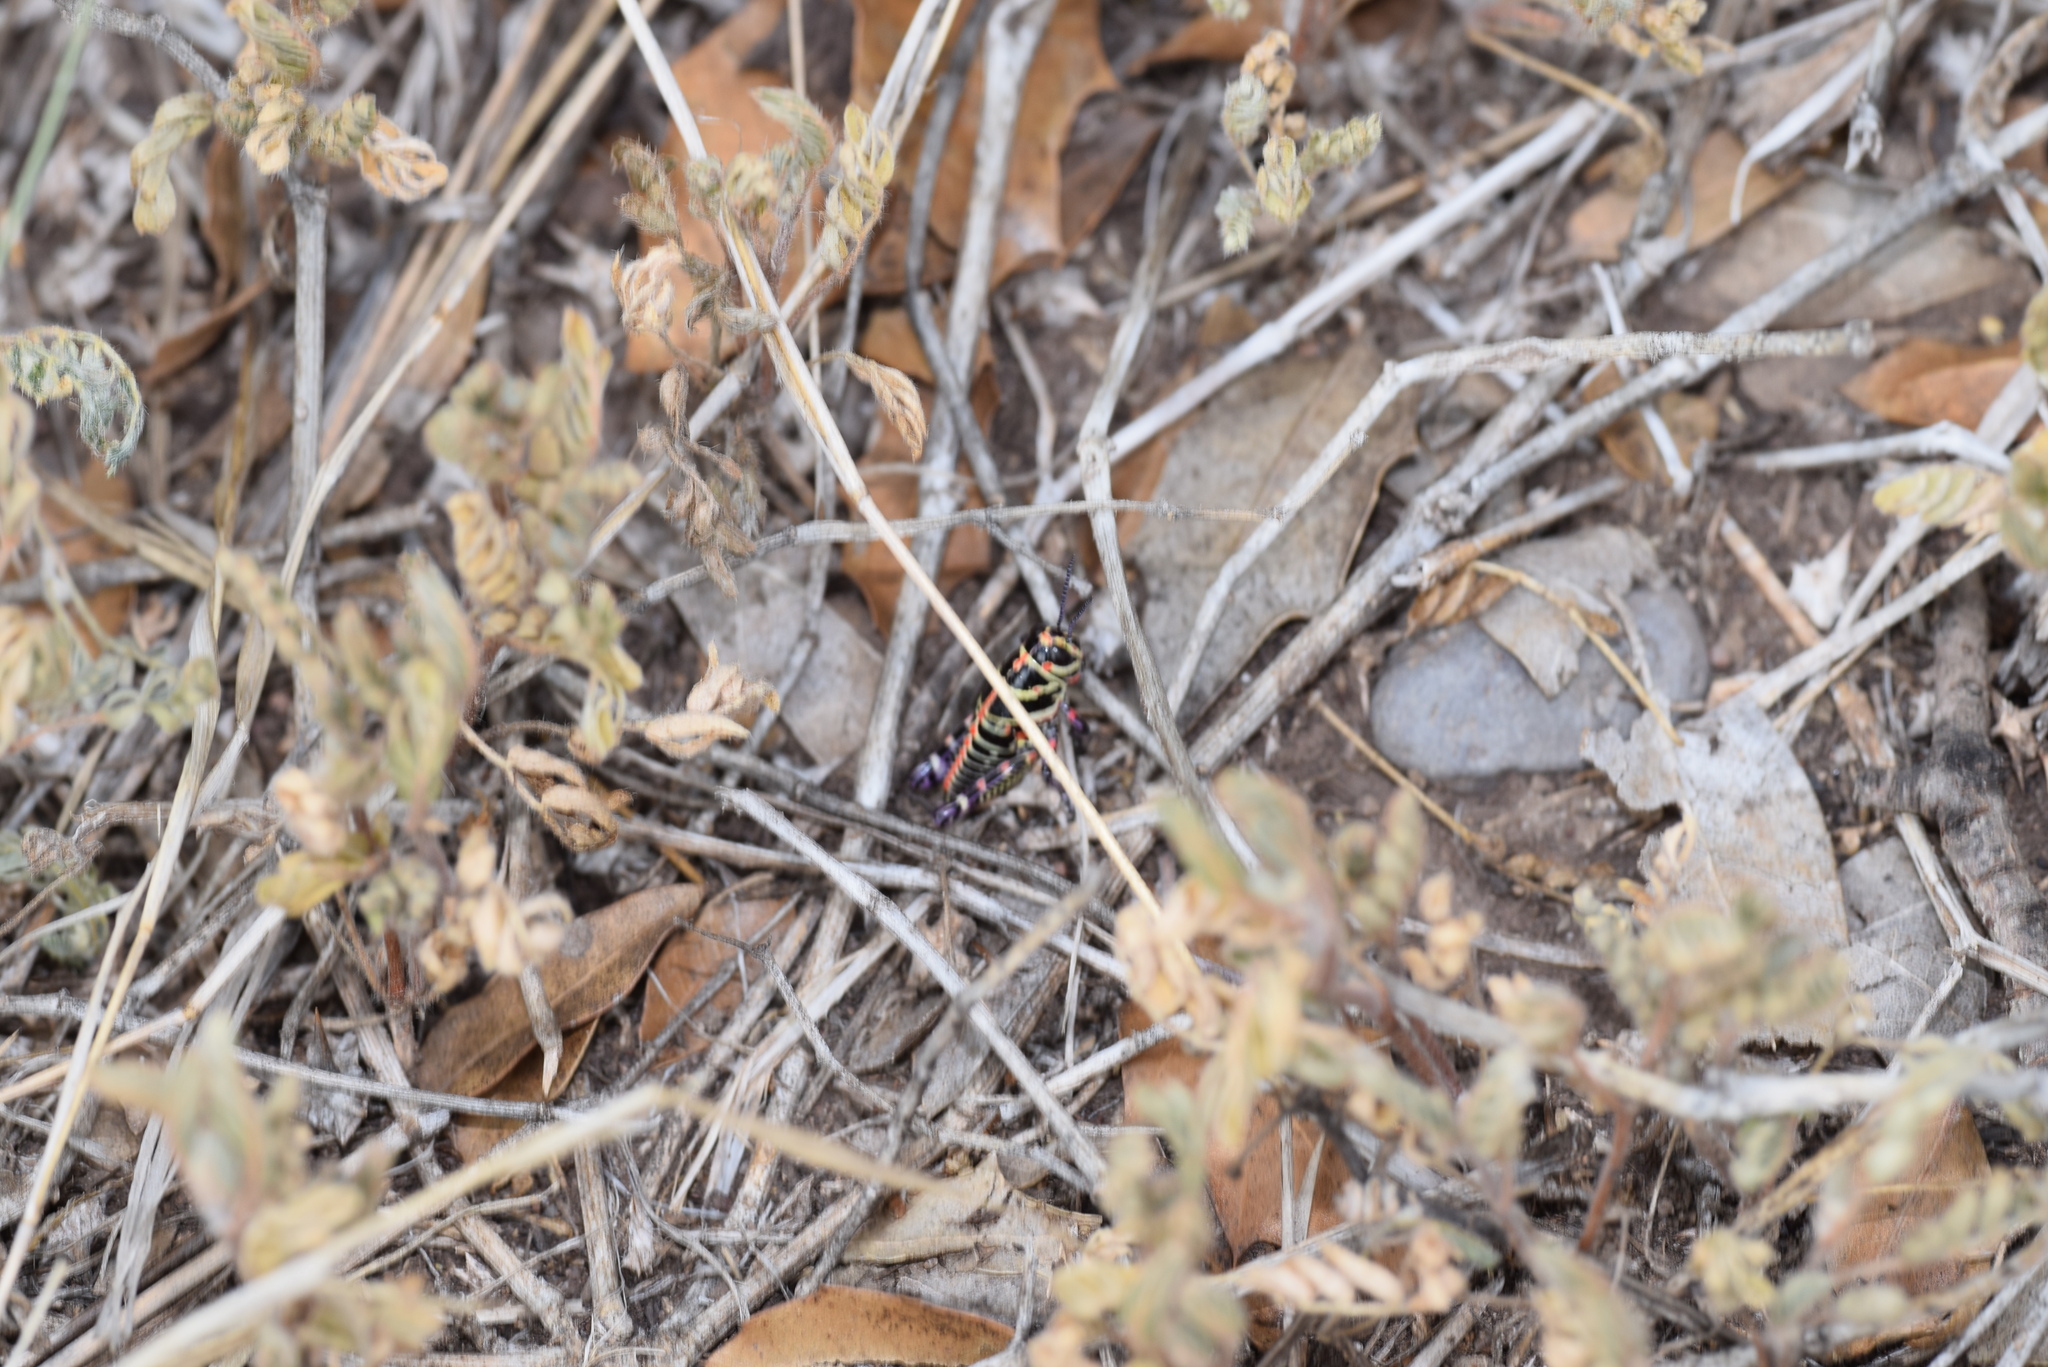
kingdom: Animalia
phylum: Arthropoda
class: Insecta
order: Orthoptera
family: Acrididae
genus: Dactylotum
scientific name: Dactylotum bicolor
